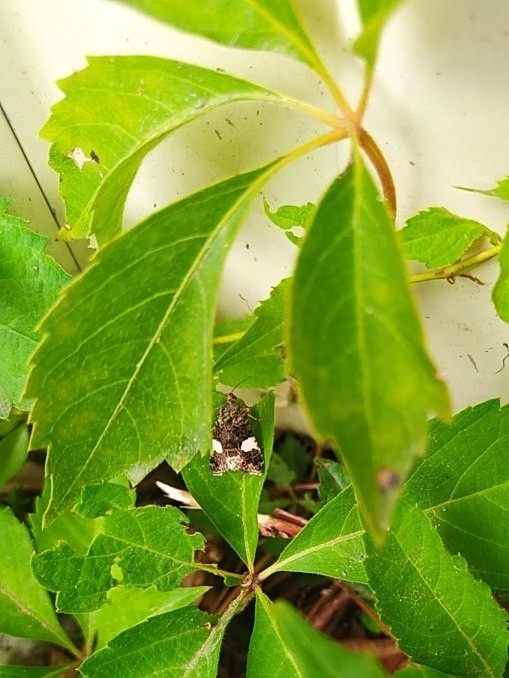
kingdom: Animalia
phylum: Arthropoda
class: Insecta
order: Lepidoptera
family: Erebidae
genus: Tyta
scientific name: Tyta luctuosa
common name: Four-spotted
